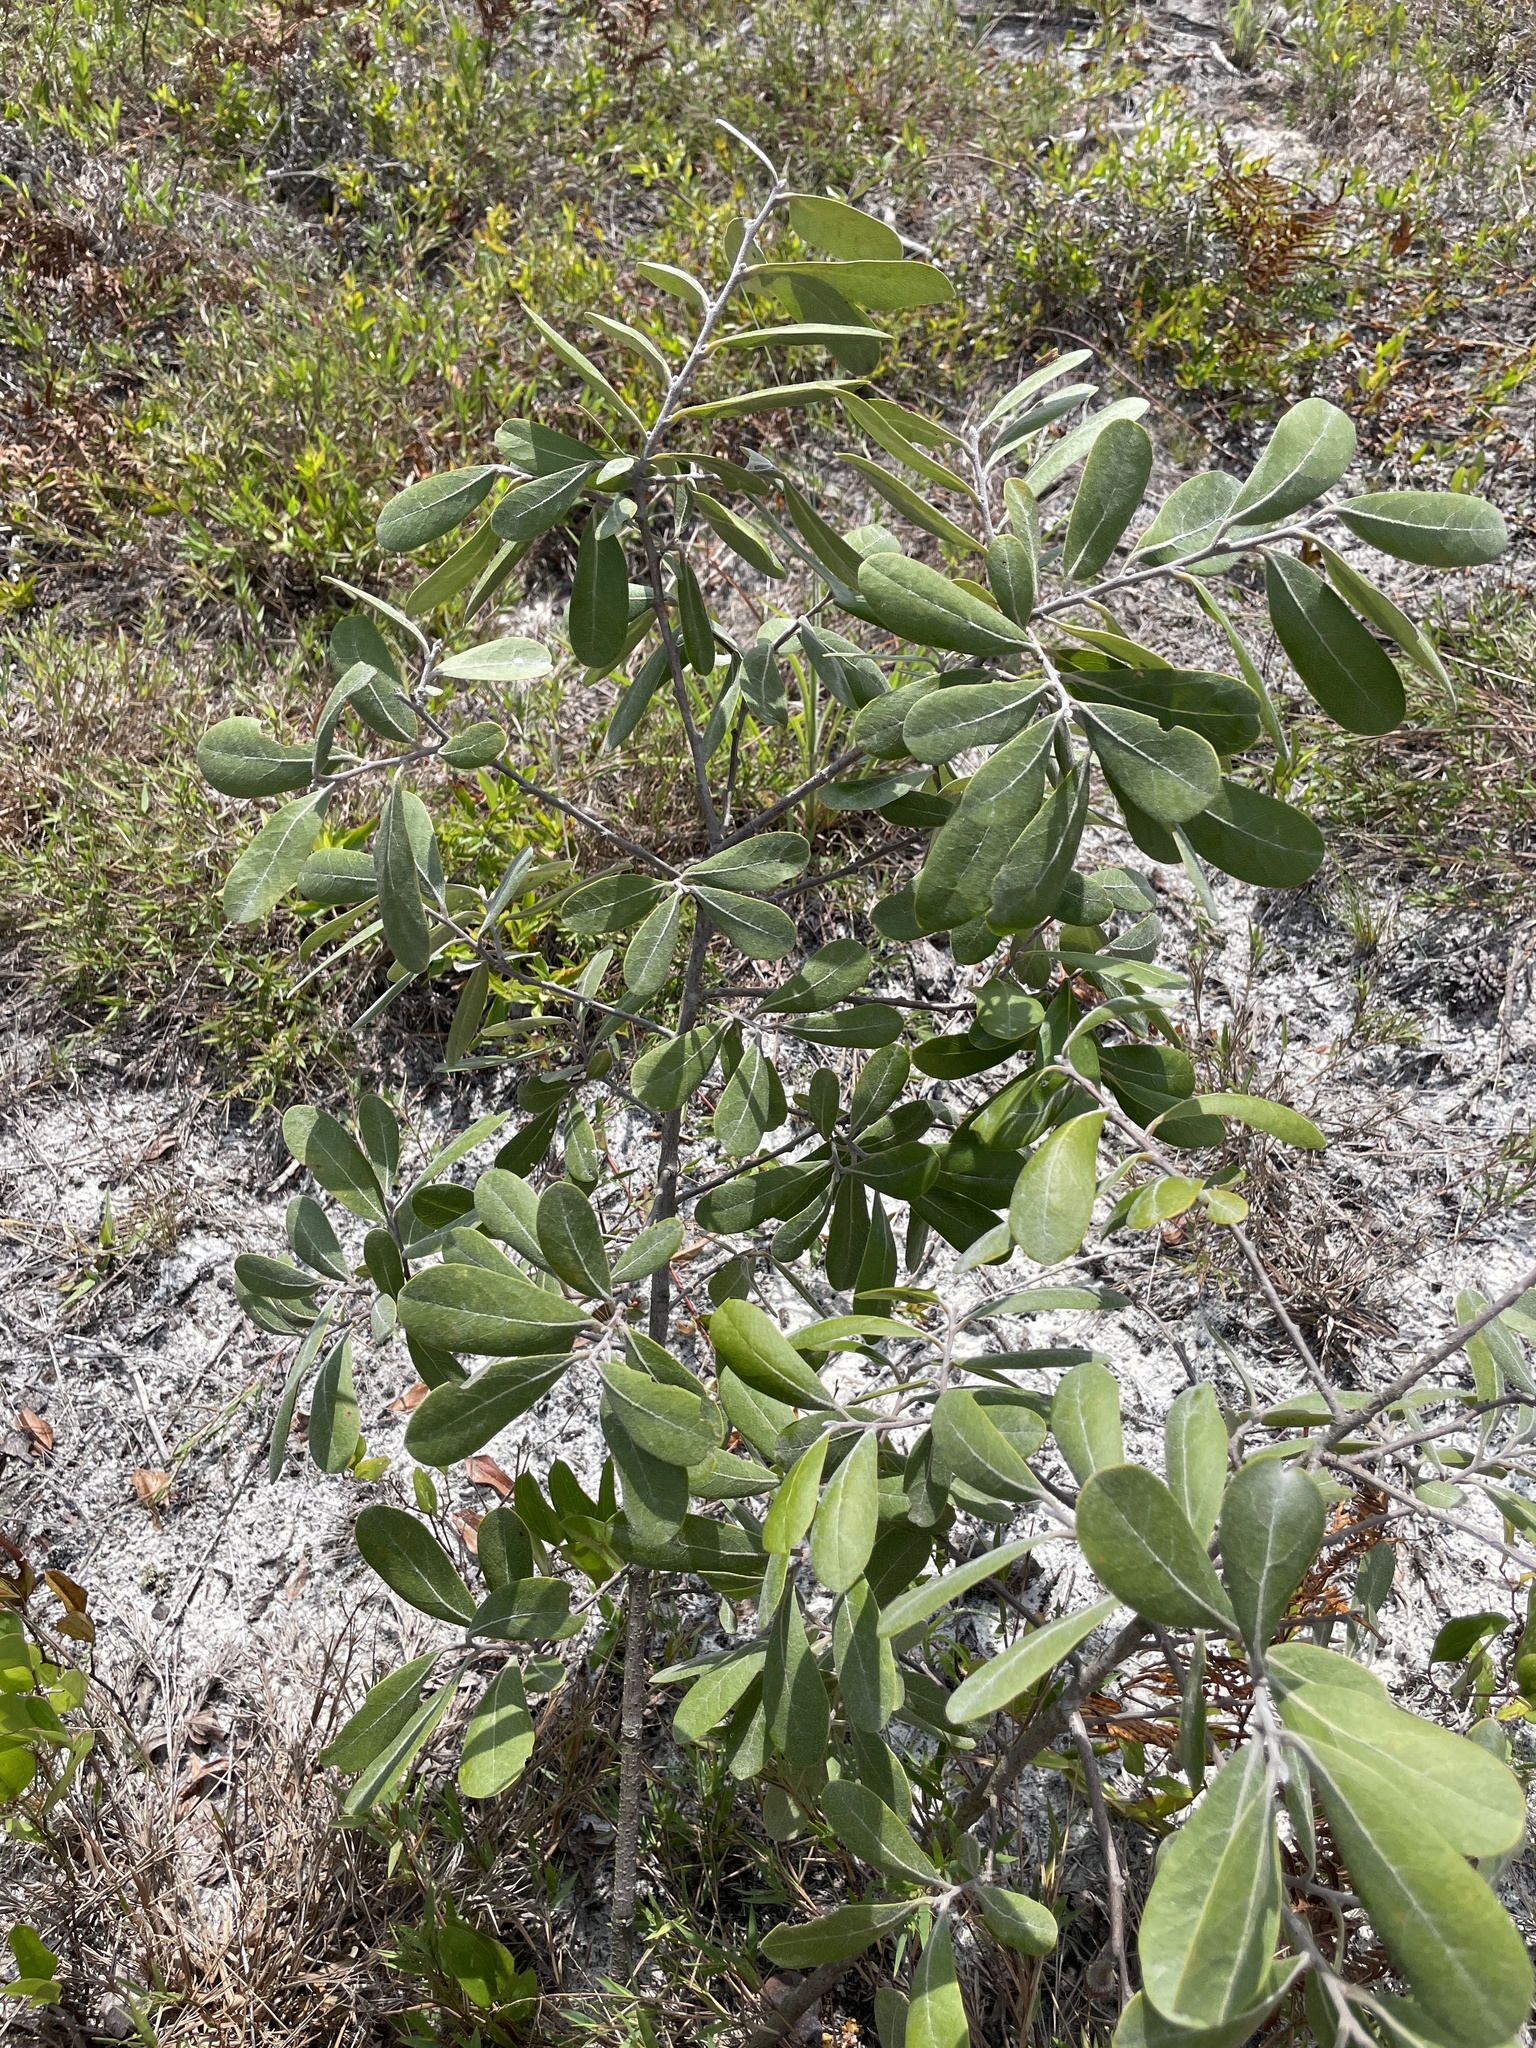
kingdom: Plantae
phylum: Tracheophyta
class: Magnoliopsida
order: Magnoliales
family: Annonaceae
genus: Asimina
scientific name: Asimina speciosa
